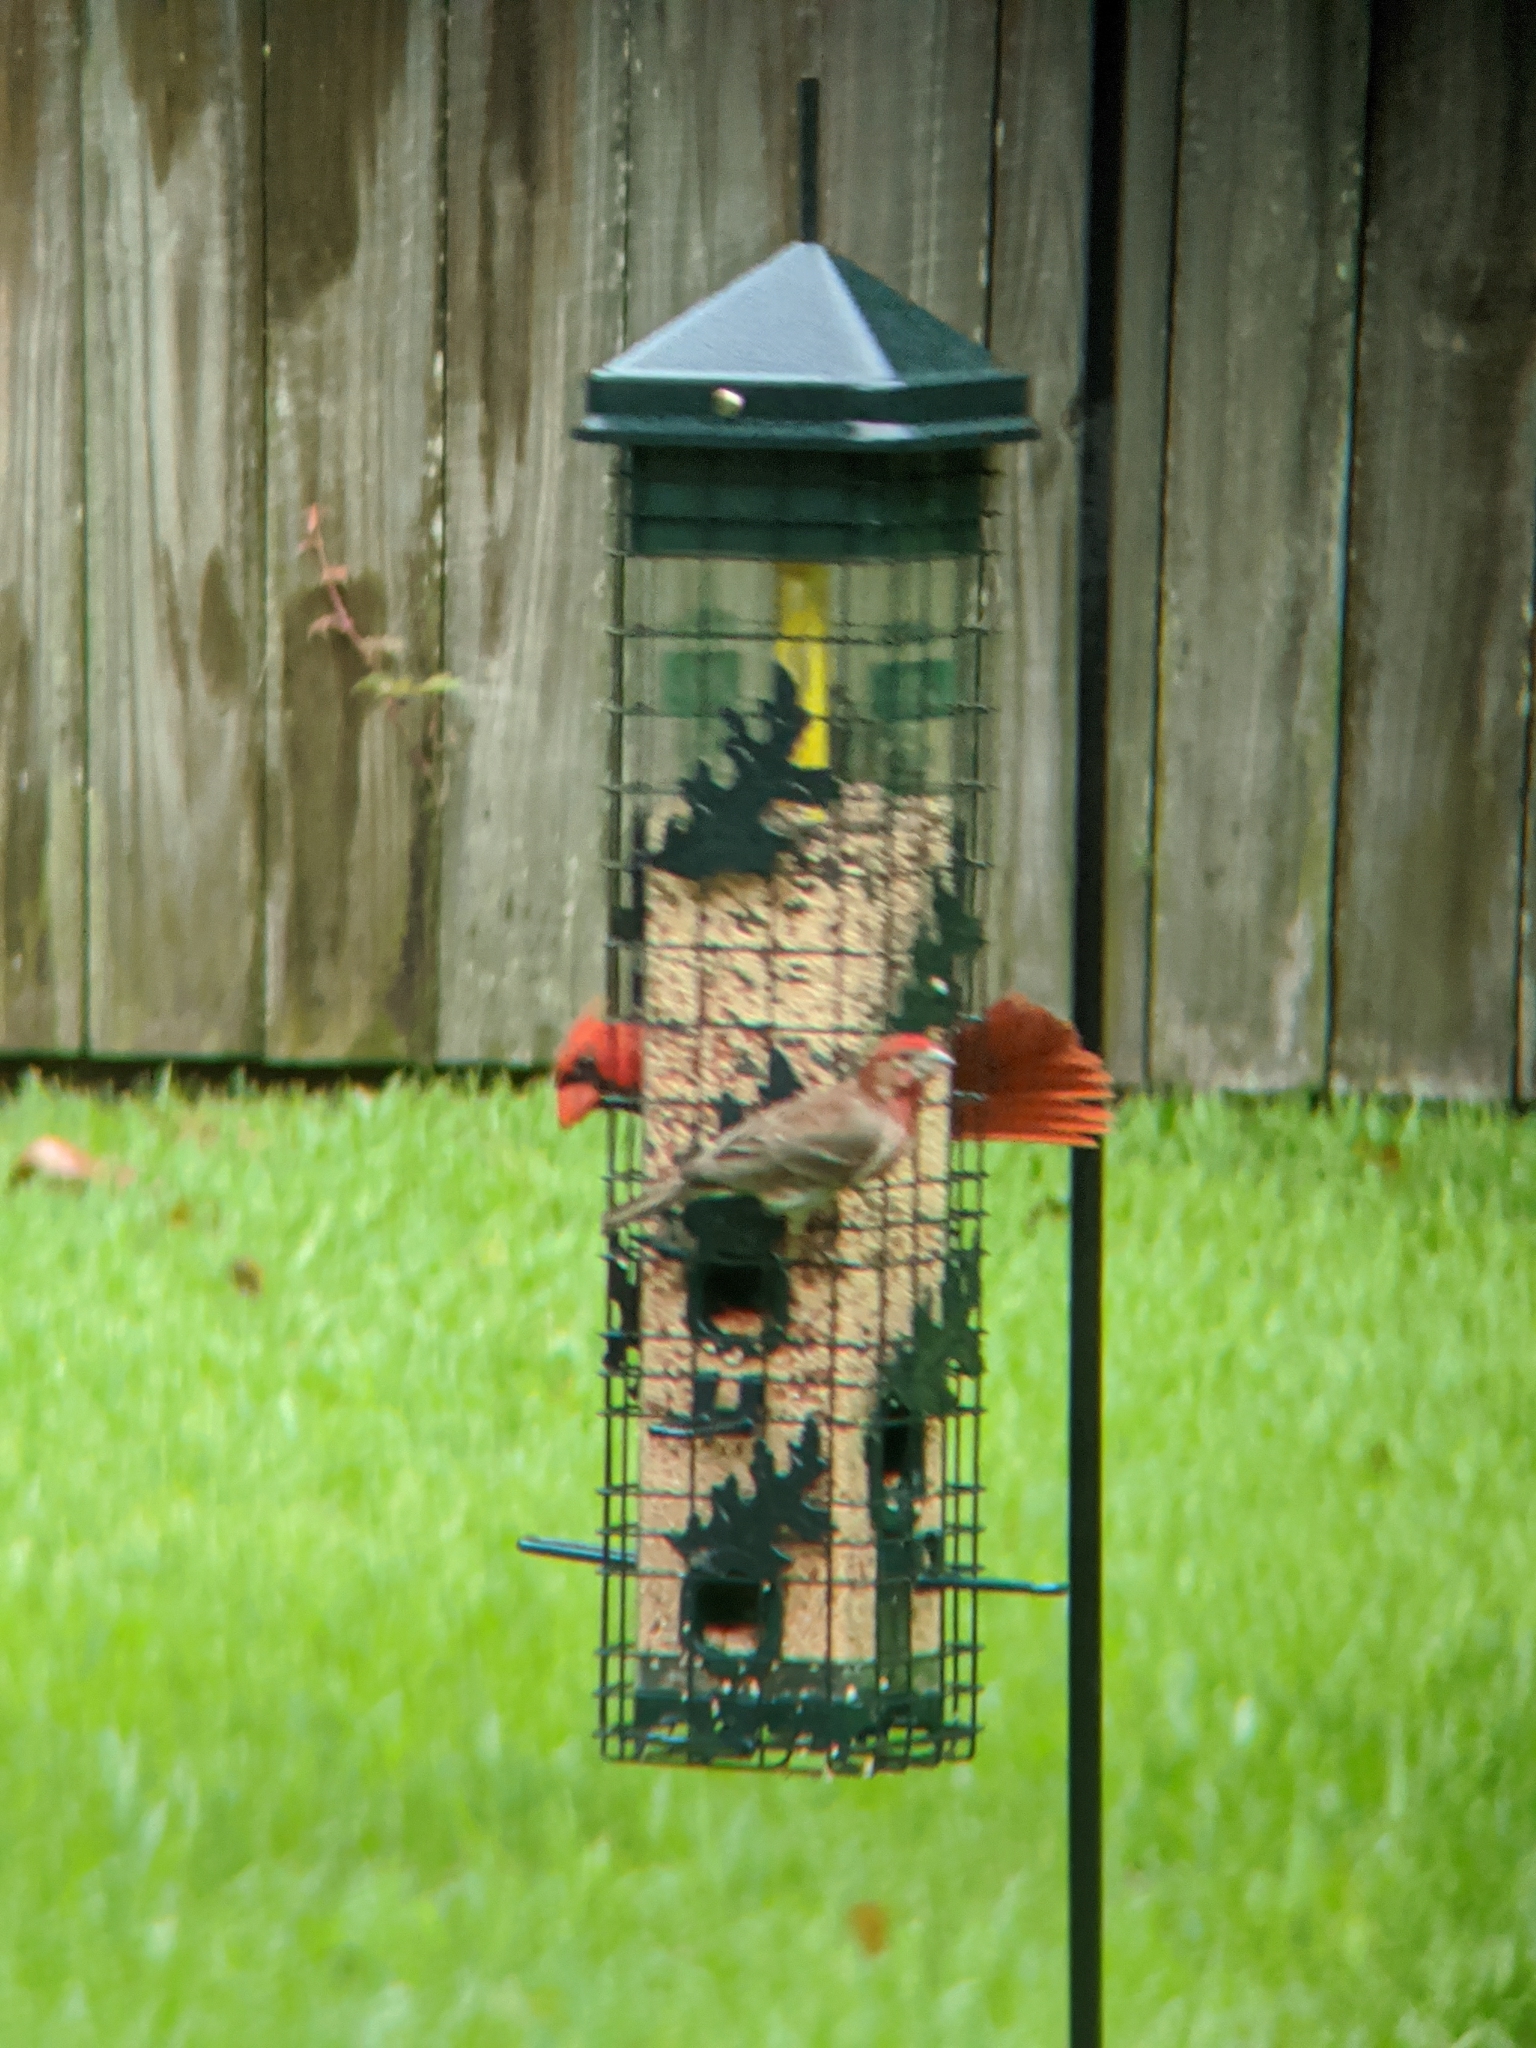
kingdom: Animalia
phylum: Chordata
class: Aves
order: Passeriformes
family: Fringillidae
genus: Haemorhous
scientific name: Haemorhous mexicanus
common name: House finch
